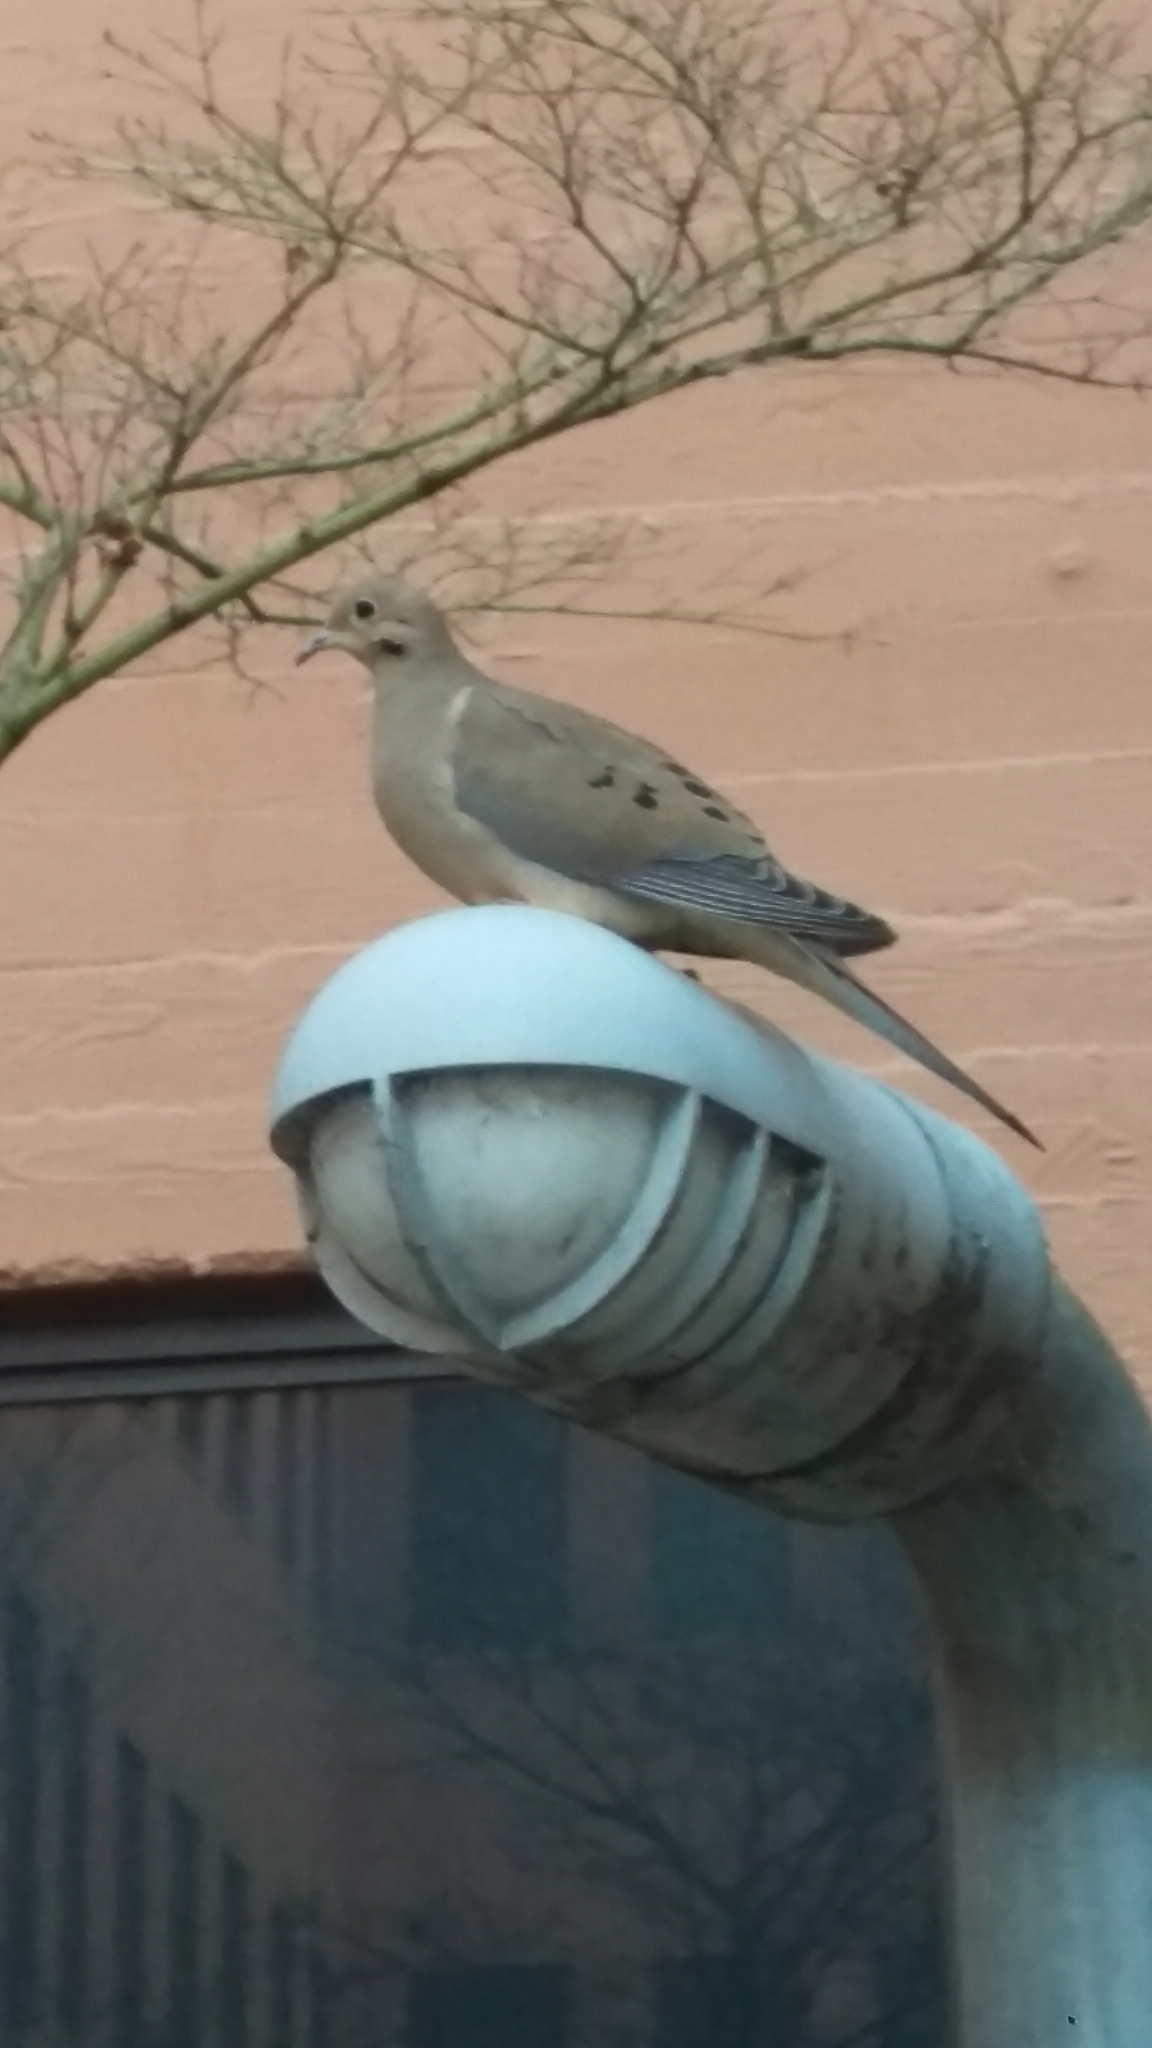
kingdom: Animalia
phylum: Chordata
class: Aves
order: Columbiformes
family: Columbidae
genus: Zenaida
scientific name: Zenaida macroura
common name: Mourning dove
